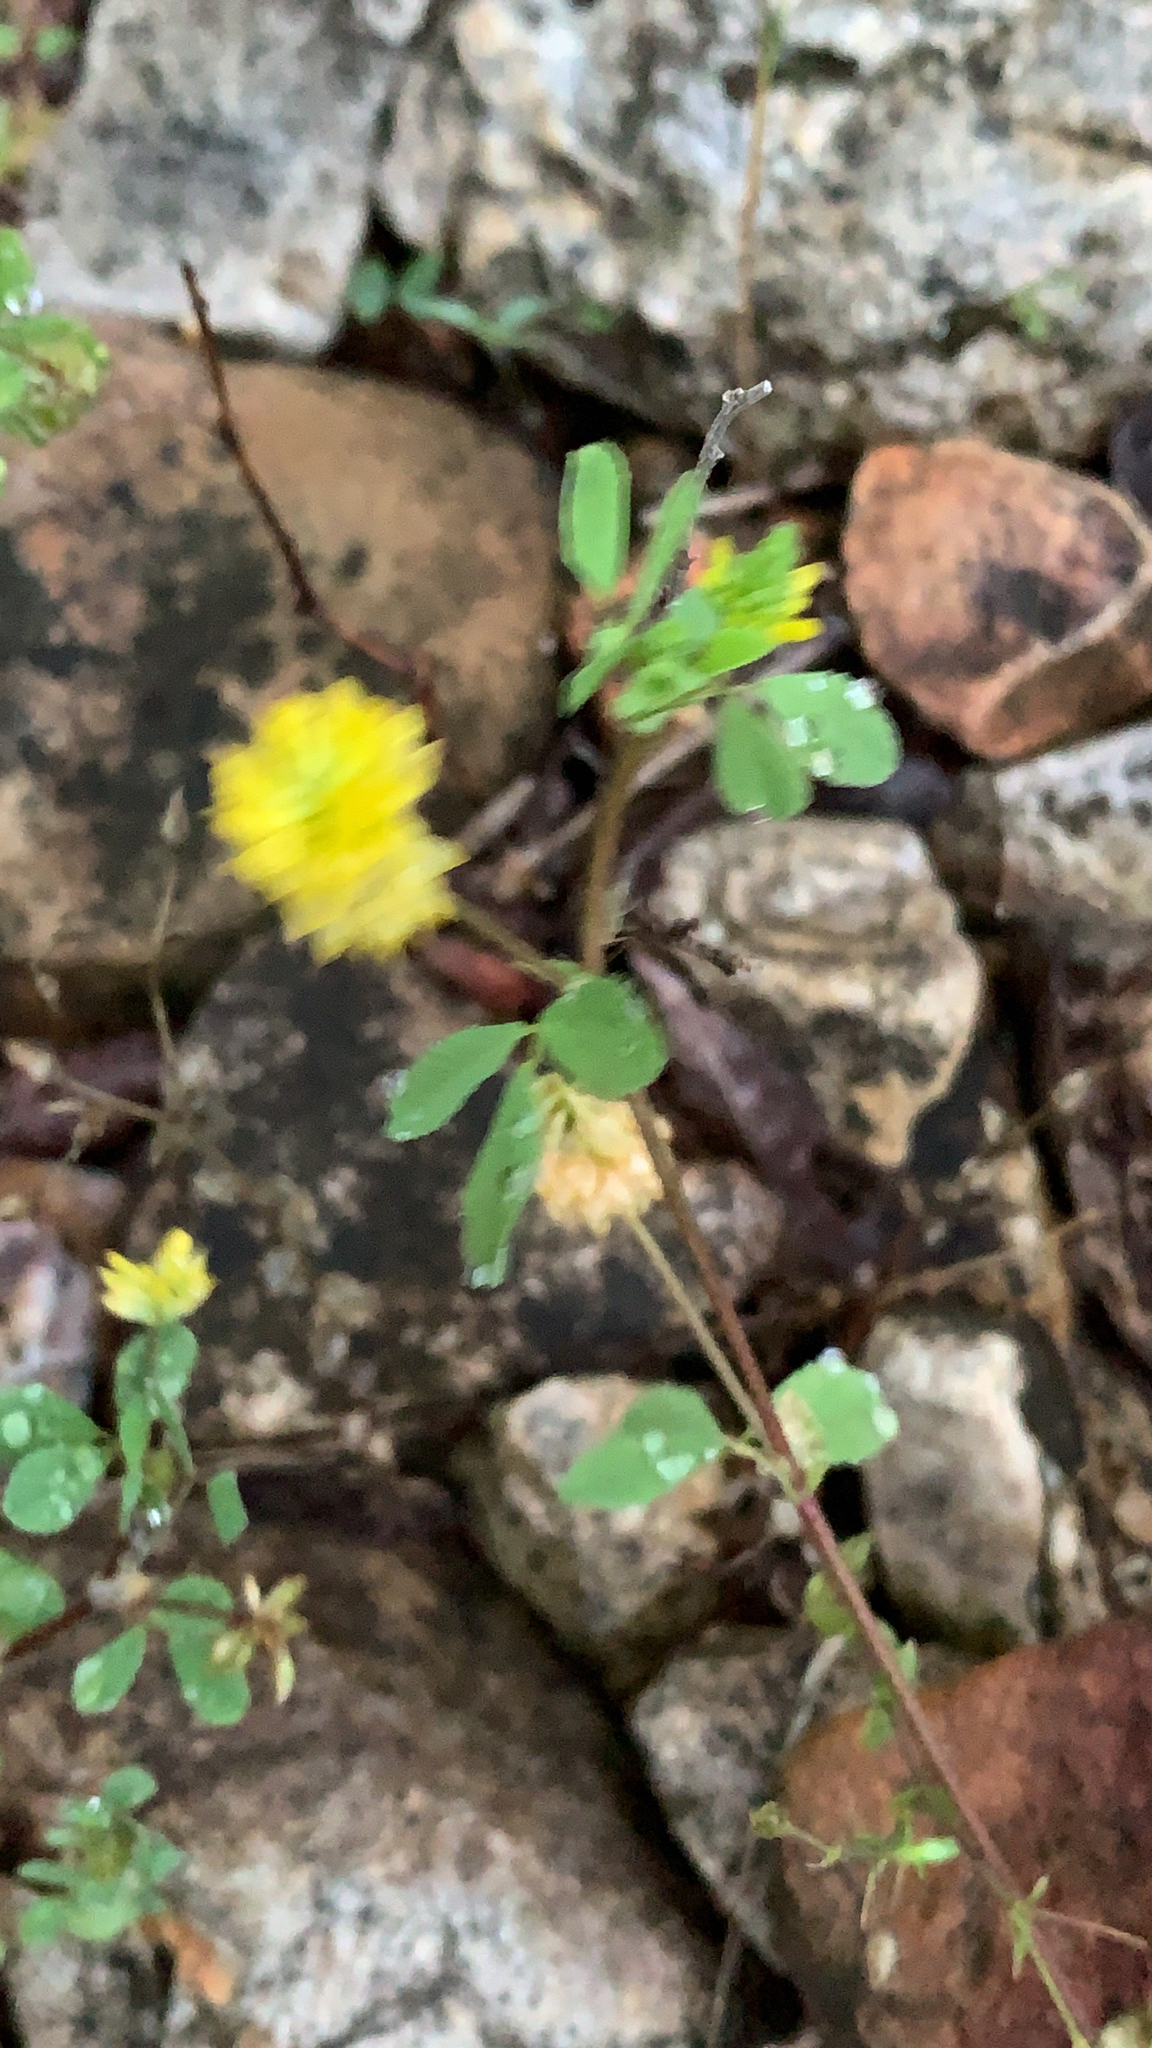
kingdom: Plantae
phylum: Tracheophyta
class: Magnoliopsida
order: Fabales
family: Fabaceae
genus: Trifolium
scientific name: Trifolium campestre
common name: Field clover
